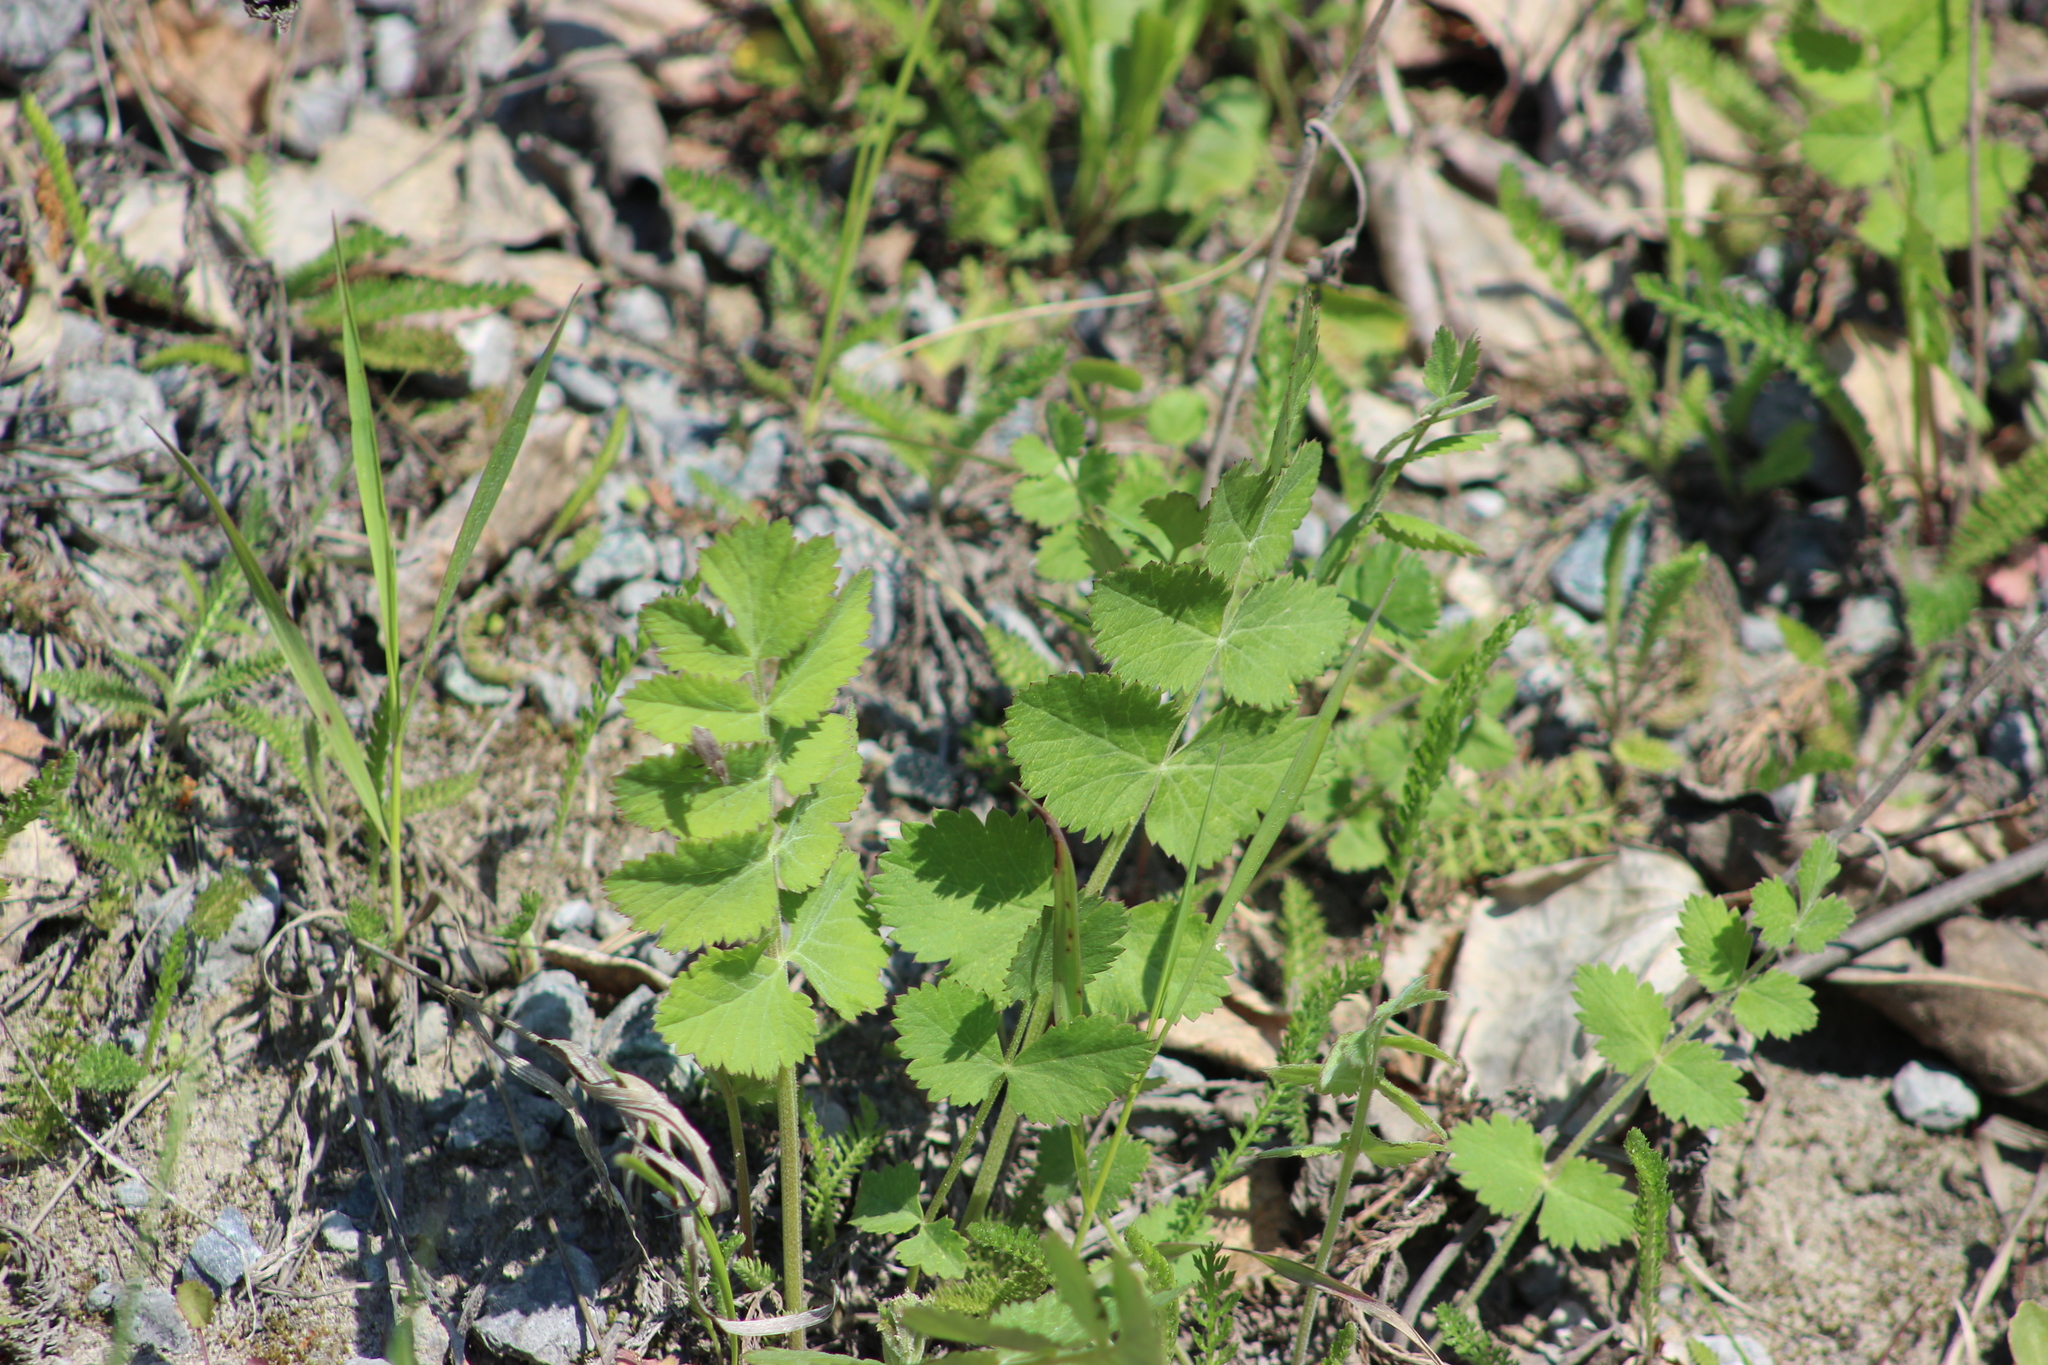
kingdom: Plantae
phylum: Tracheophyta
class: Magnoliopsida
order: Apiales
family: Apiaceae
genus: Pimpinella
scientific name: Pimpinella saxifraga
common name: Burnet-saxifrage
